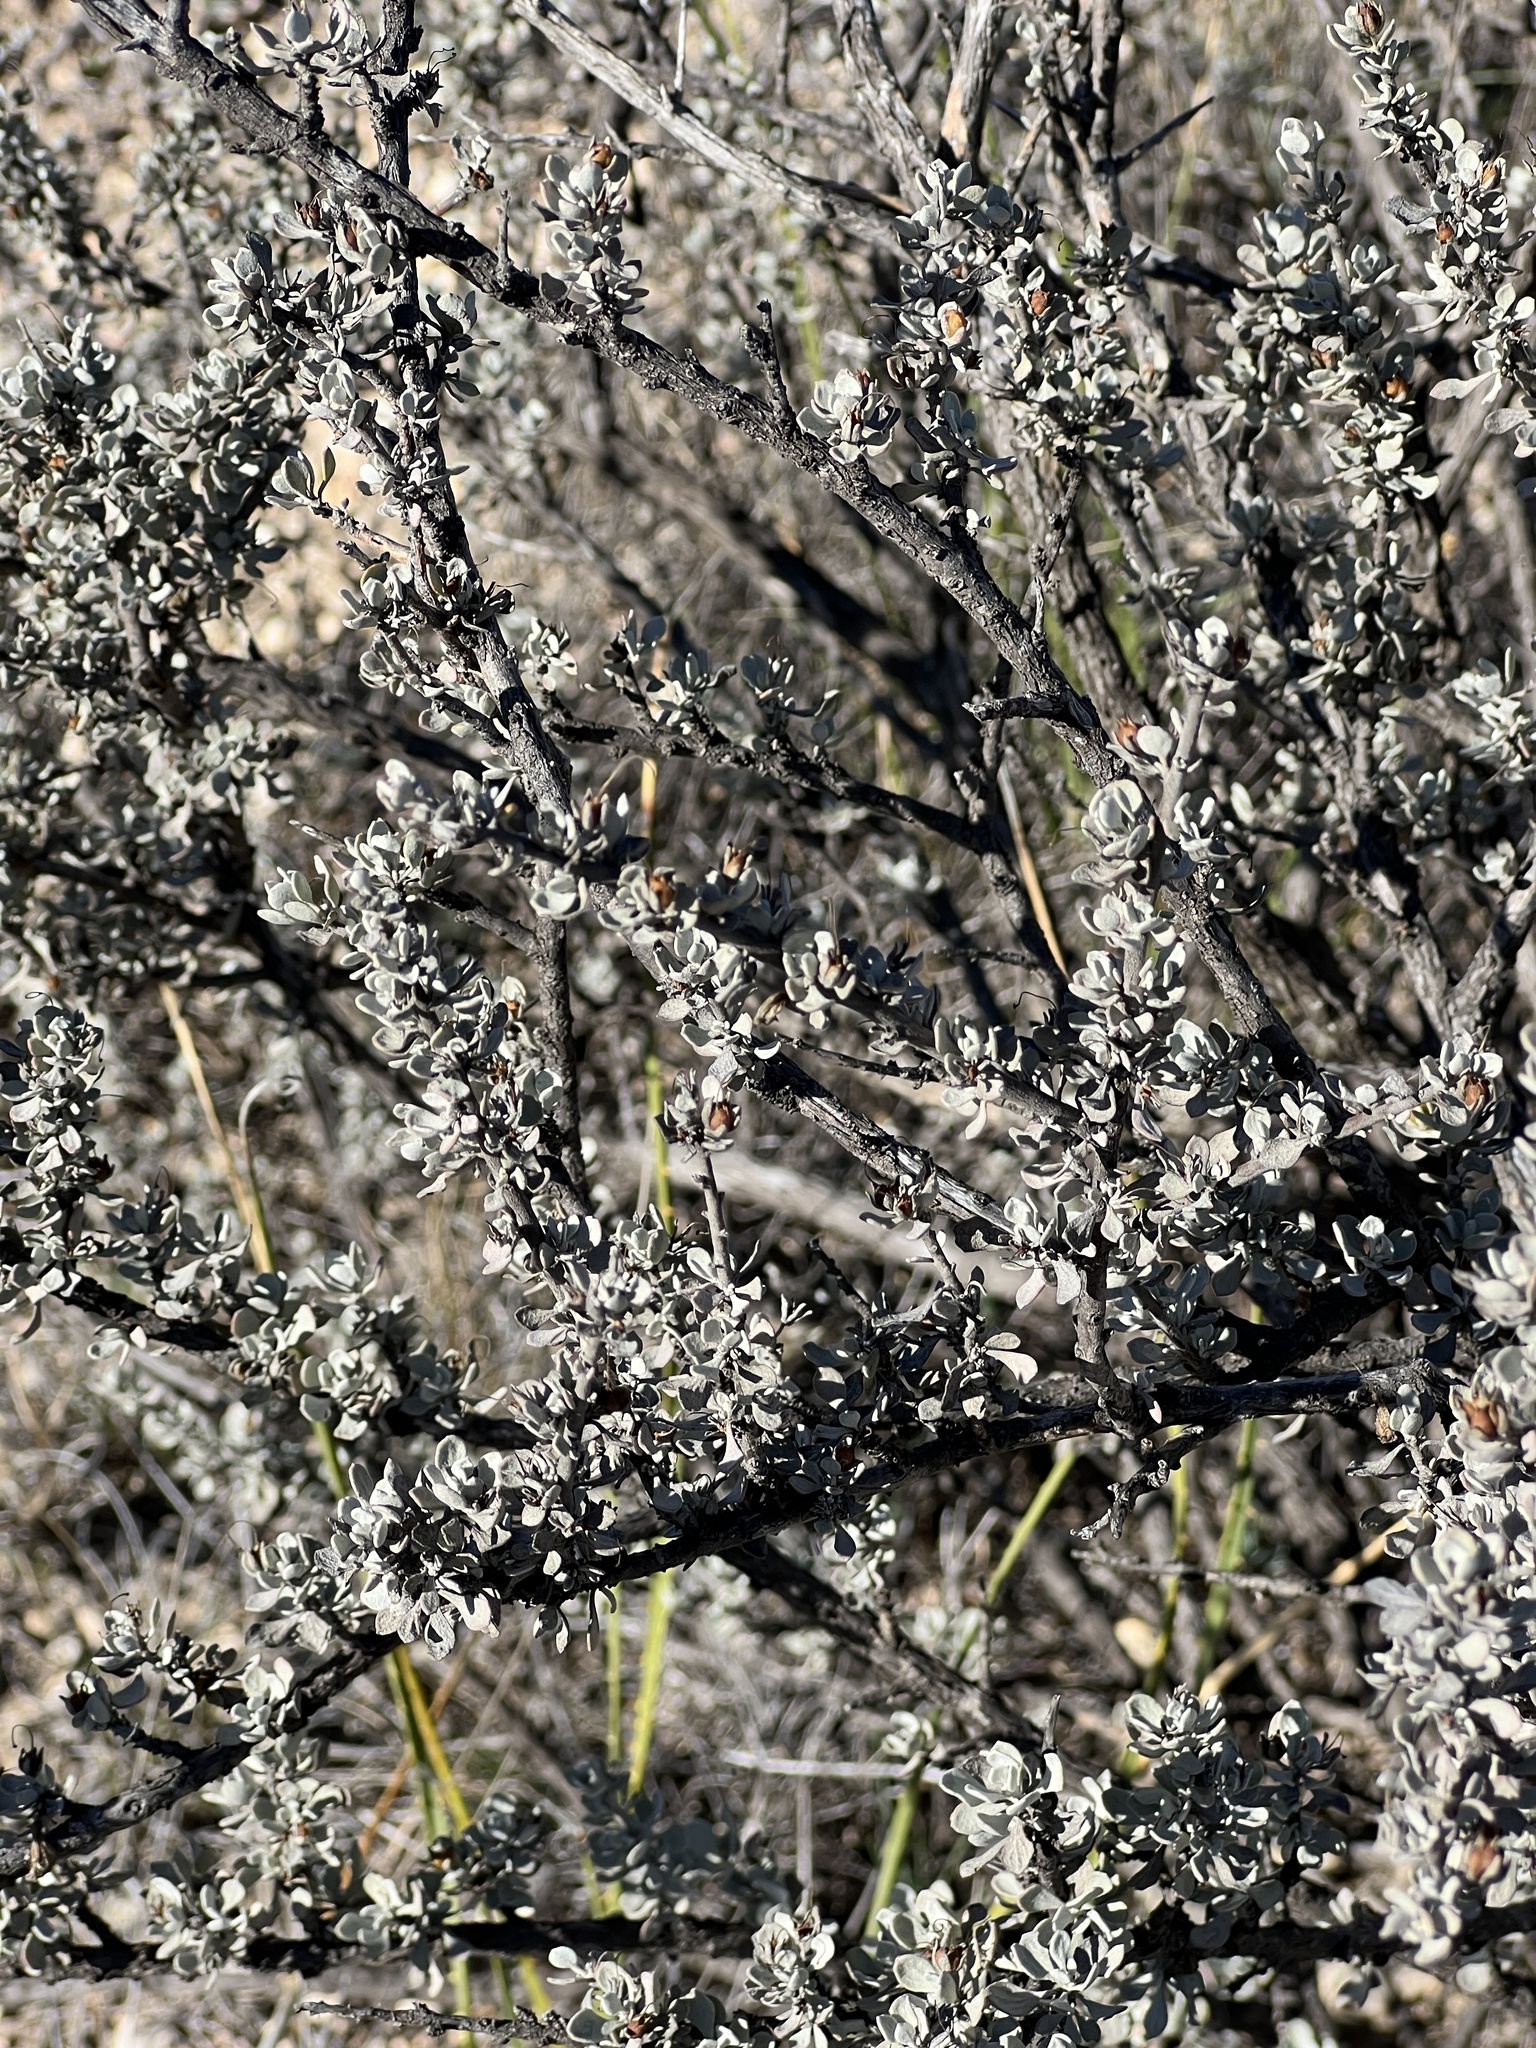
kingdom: Plantae
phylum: Tracheophyta
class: Magnoliopsida
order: Lamiales
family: Scrophulariaceae
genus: Leucophyllum
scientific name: Leucophyllum minus
